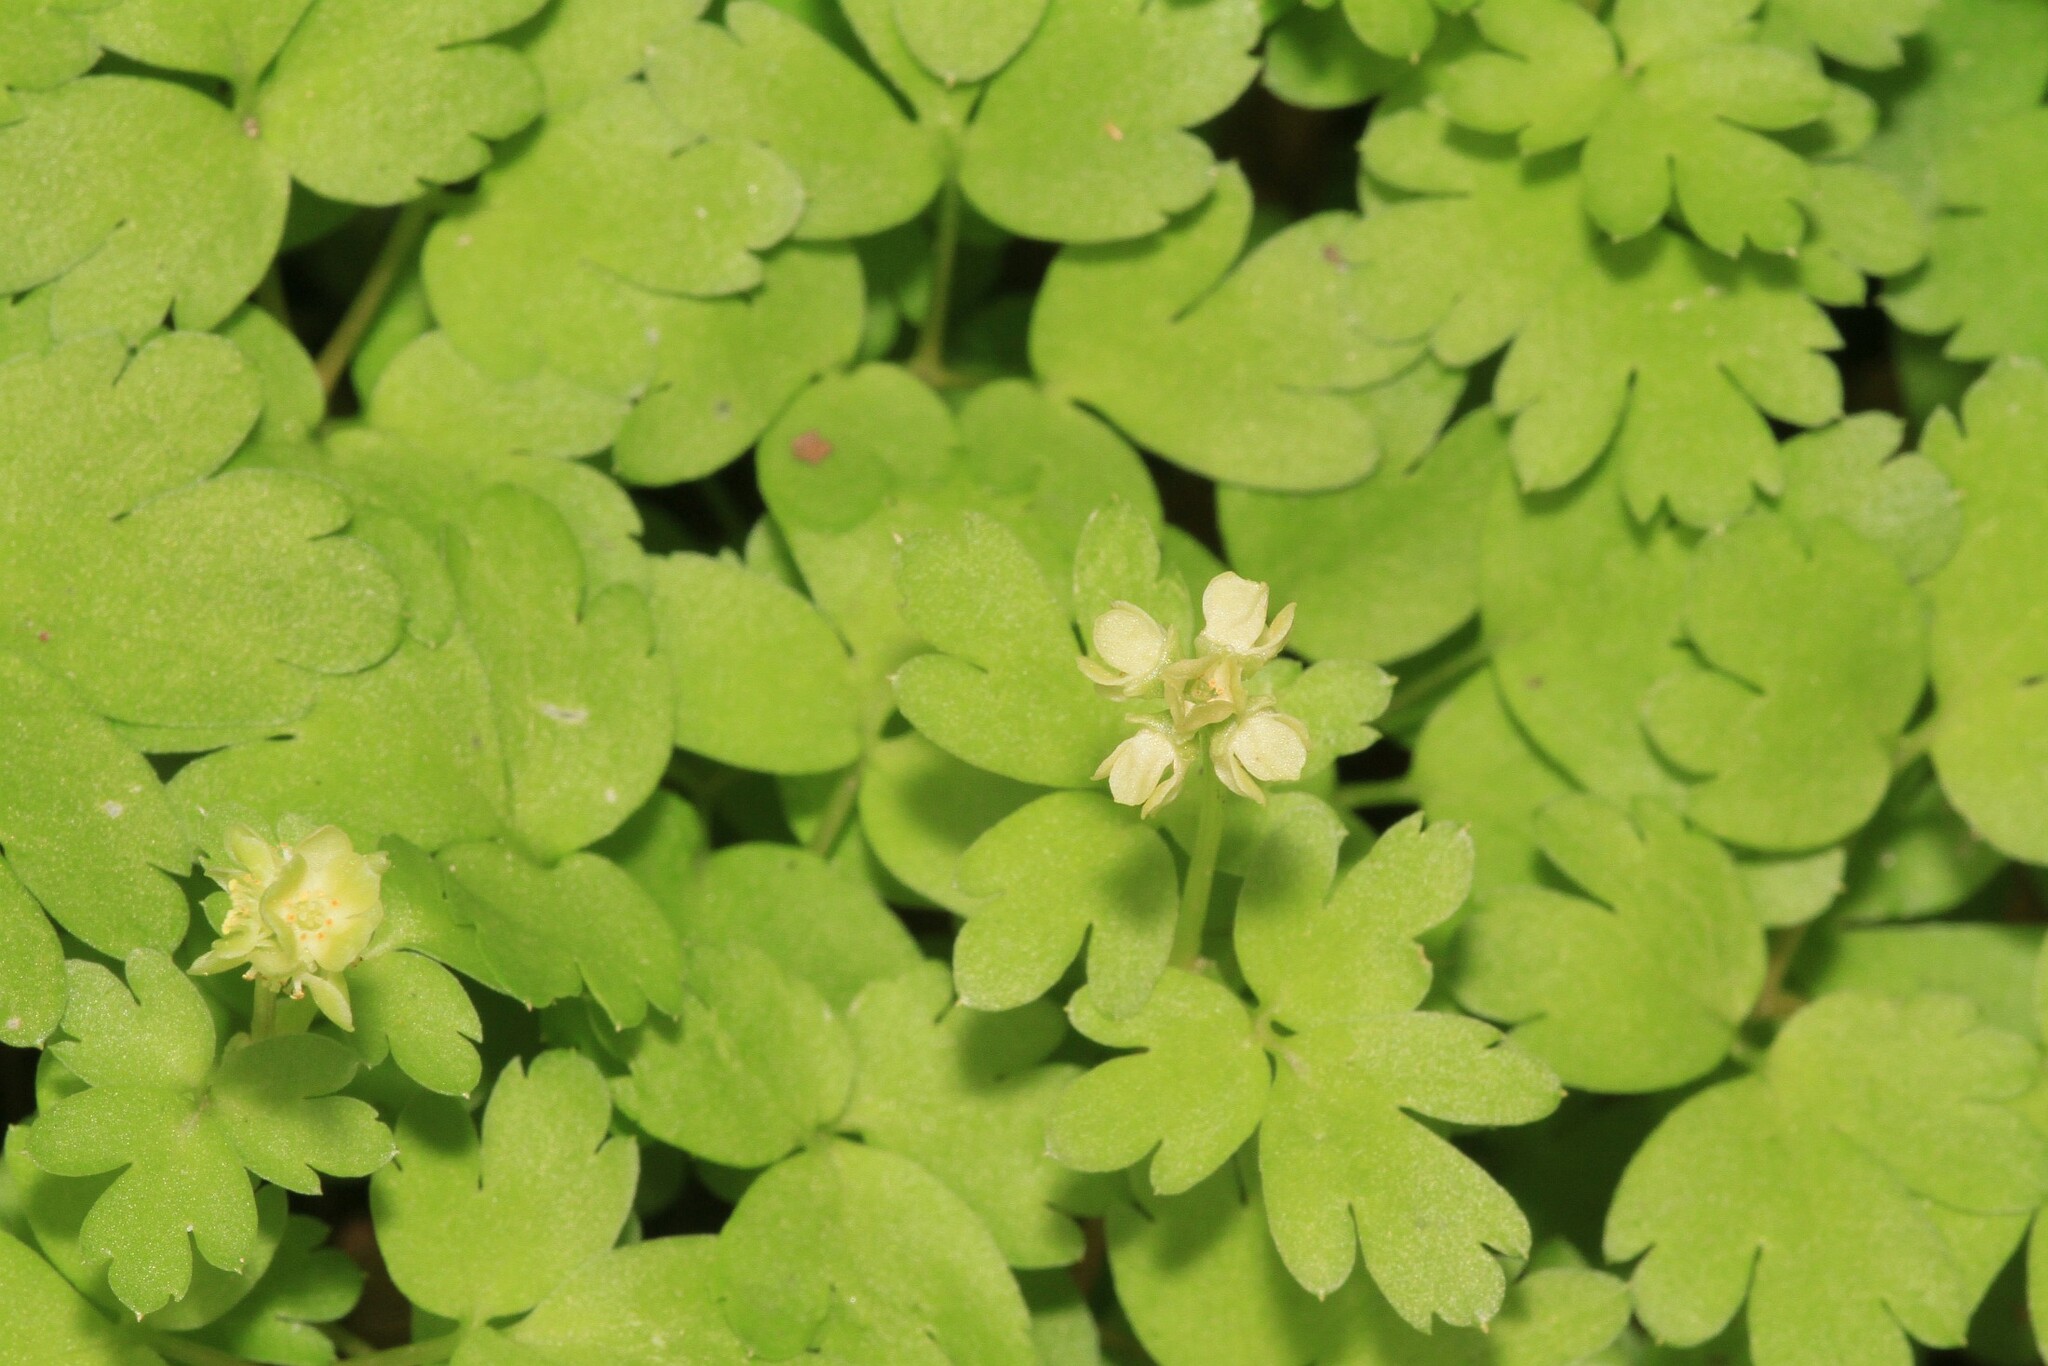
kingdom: Plantae
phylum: Tracheophyta
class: Magnoliopsida
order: Dipsacales
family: Viburnaceae
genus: Adoxa
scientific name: Adoxa moschatellina
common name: Moschatel
